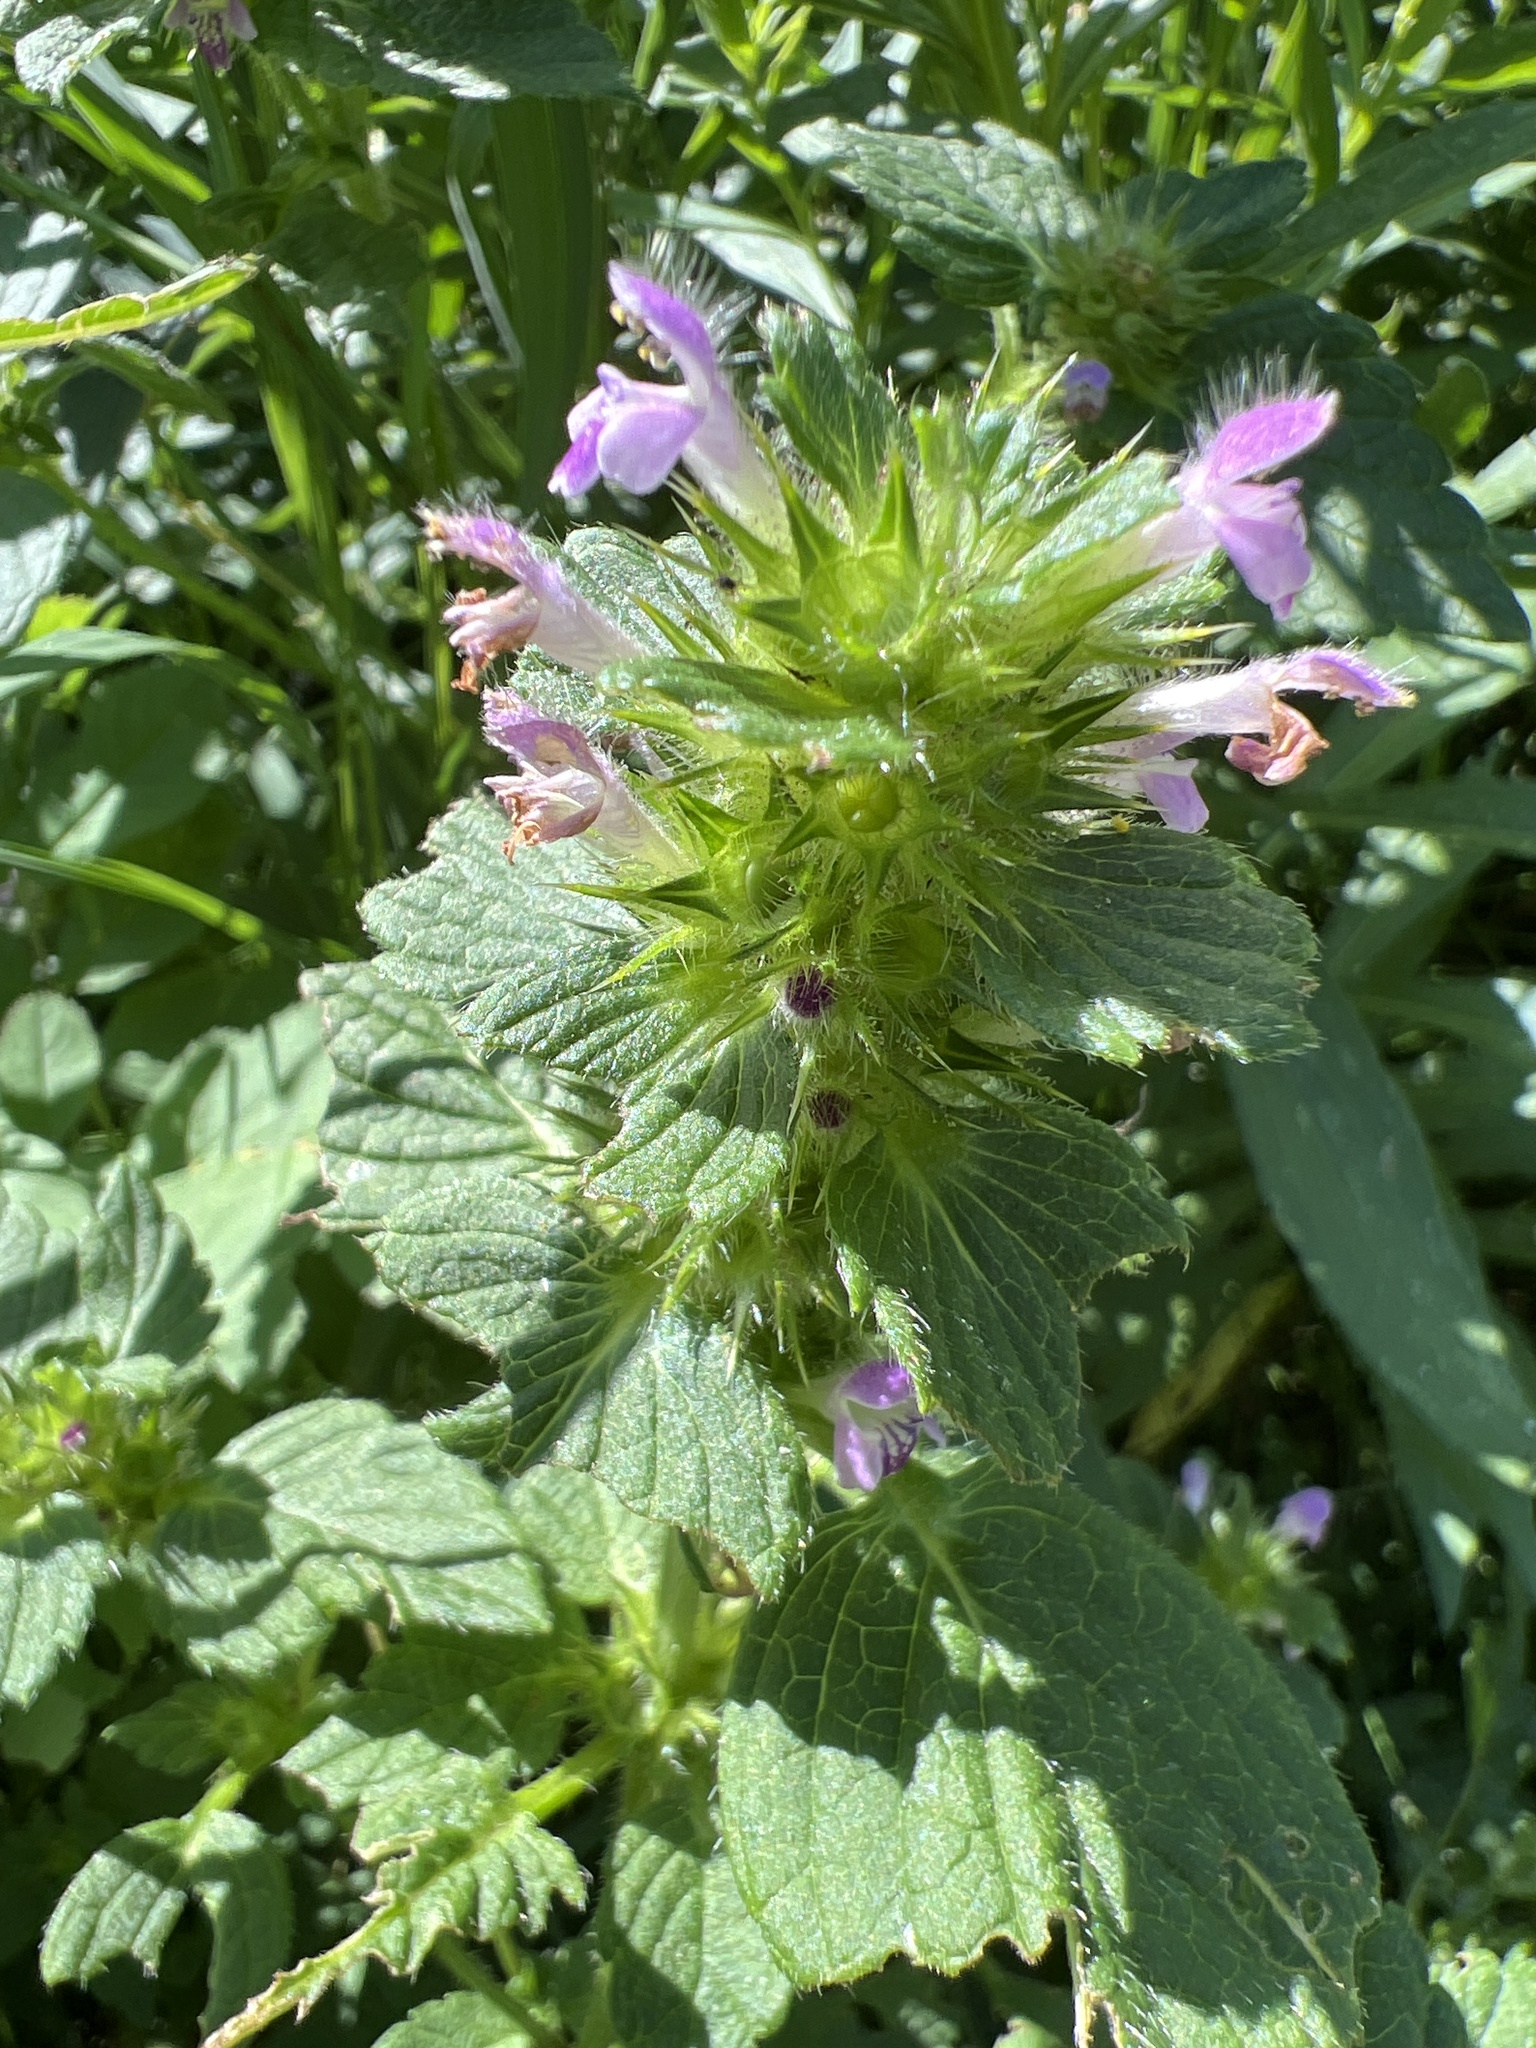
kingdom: Plantae
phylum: Tracheophyta
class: Magnoliopsida
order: Lamiales
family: Lamiaceae
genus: Galeopsis
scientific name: Galeopsis bifida
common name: Bifid hemp-nettle
